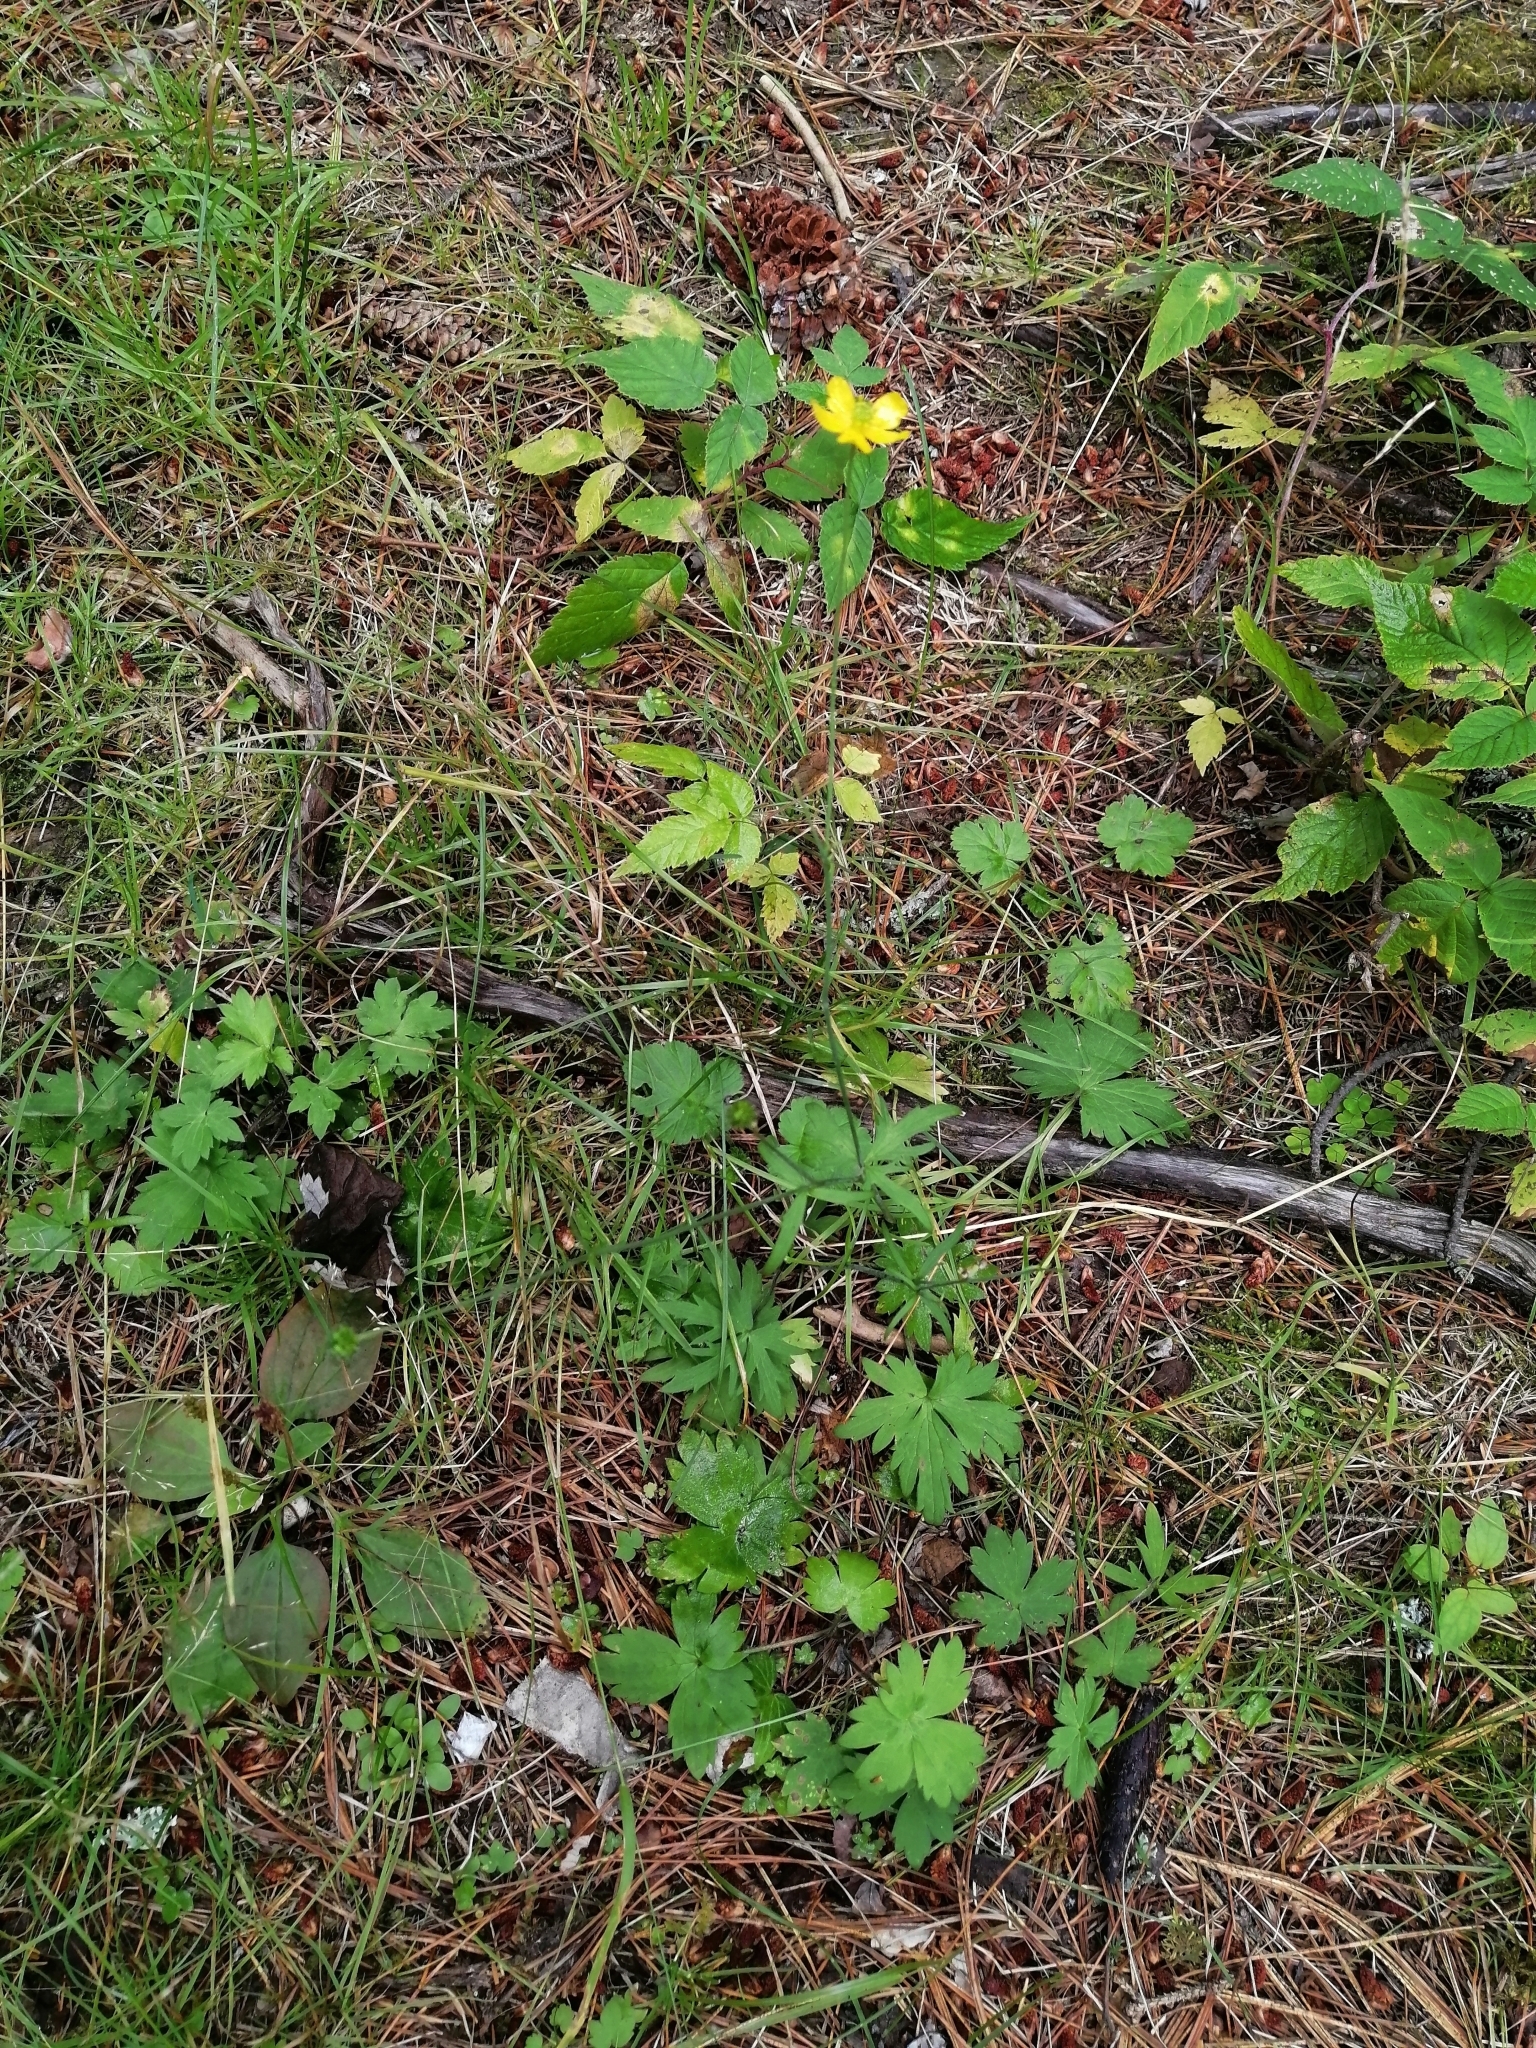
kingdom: Plantae
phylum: Tracheophyta
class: Magnoliopsida
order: Ranunculales
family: Ranunculaceae
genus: Ranunculus
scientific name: Ranunculus propinquus
